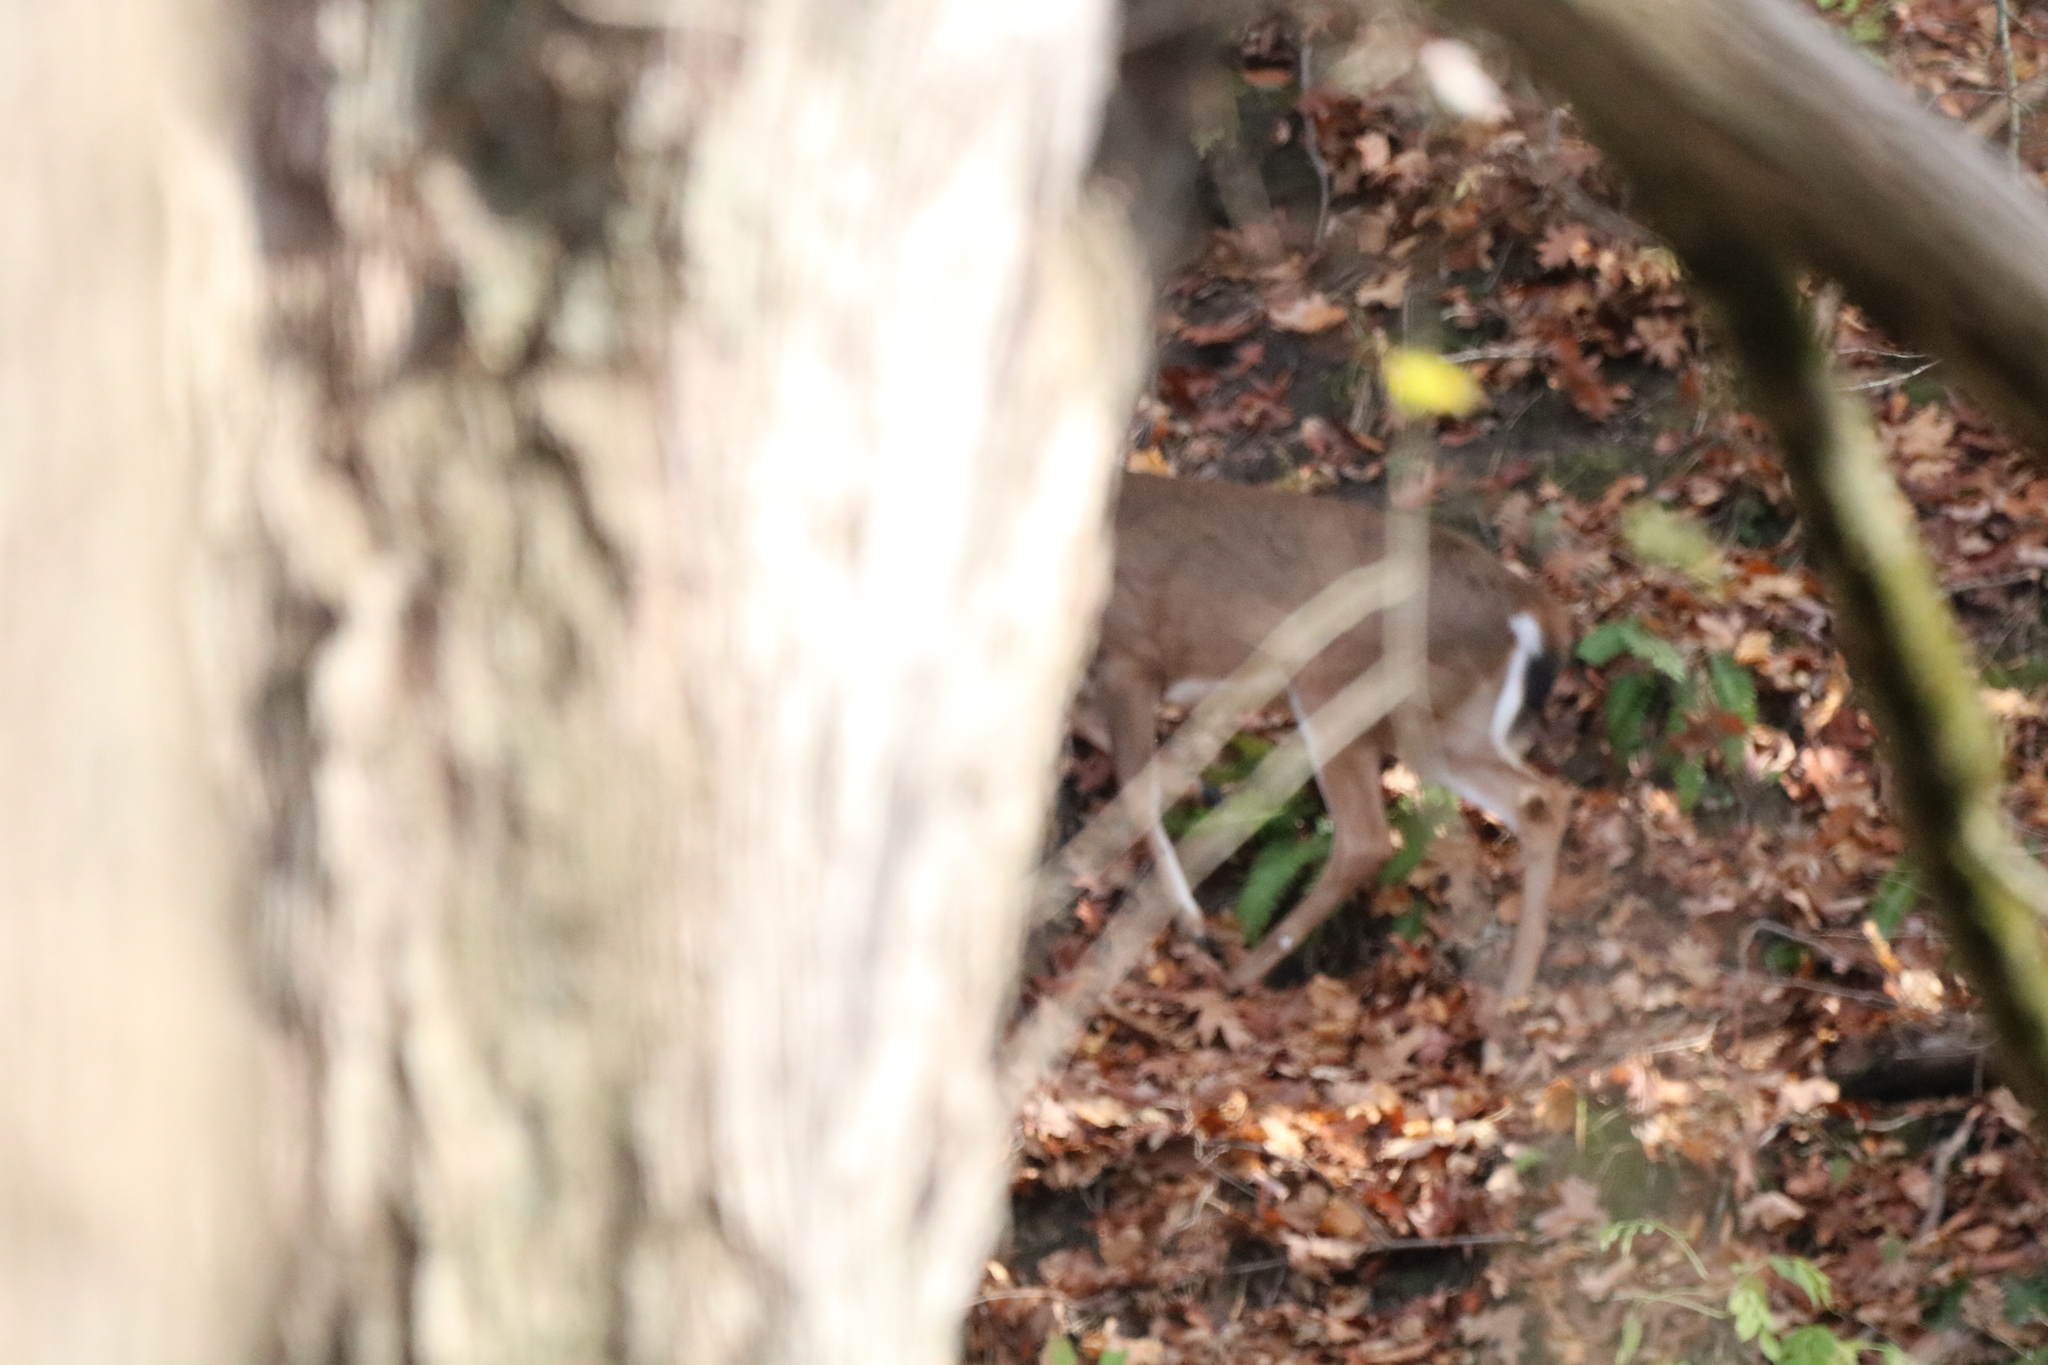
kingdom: Animalia
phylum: Chordata
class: Mammalia
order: Artiodactyla
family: Cervidae
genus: Odocoileus
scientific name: Odocoileus virginianus
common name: White-tailed deer
